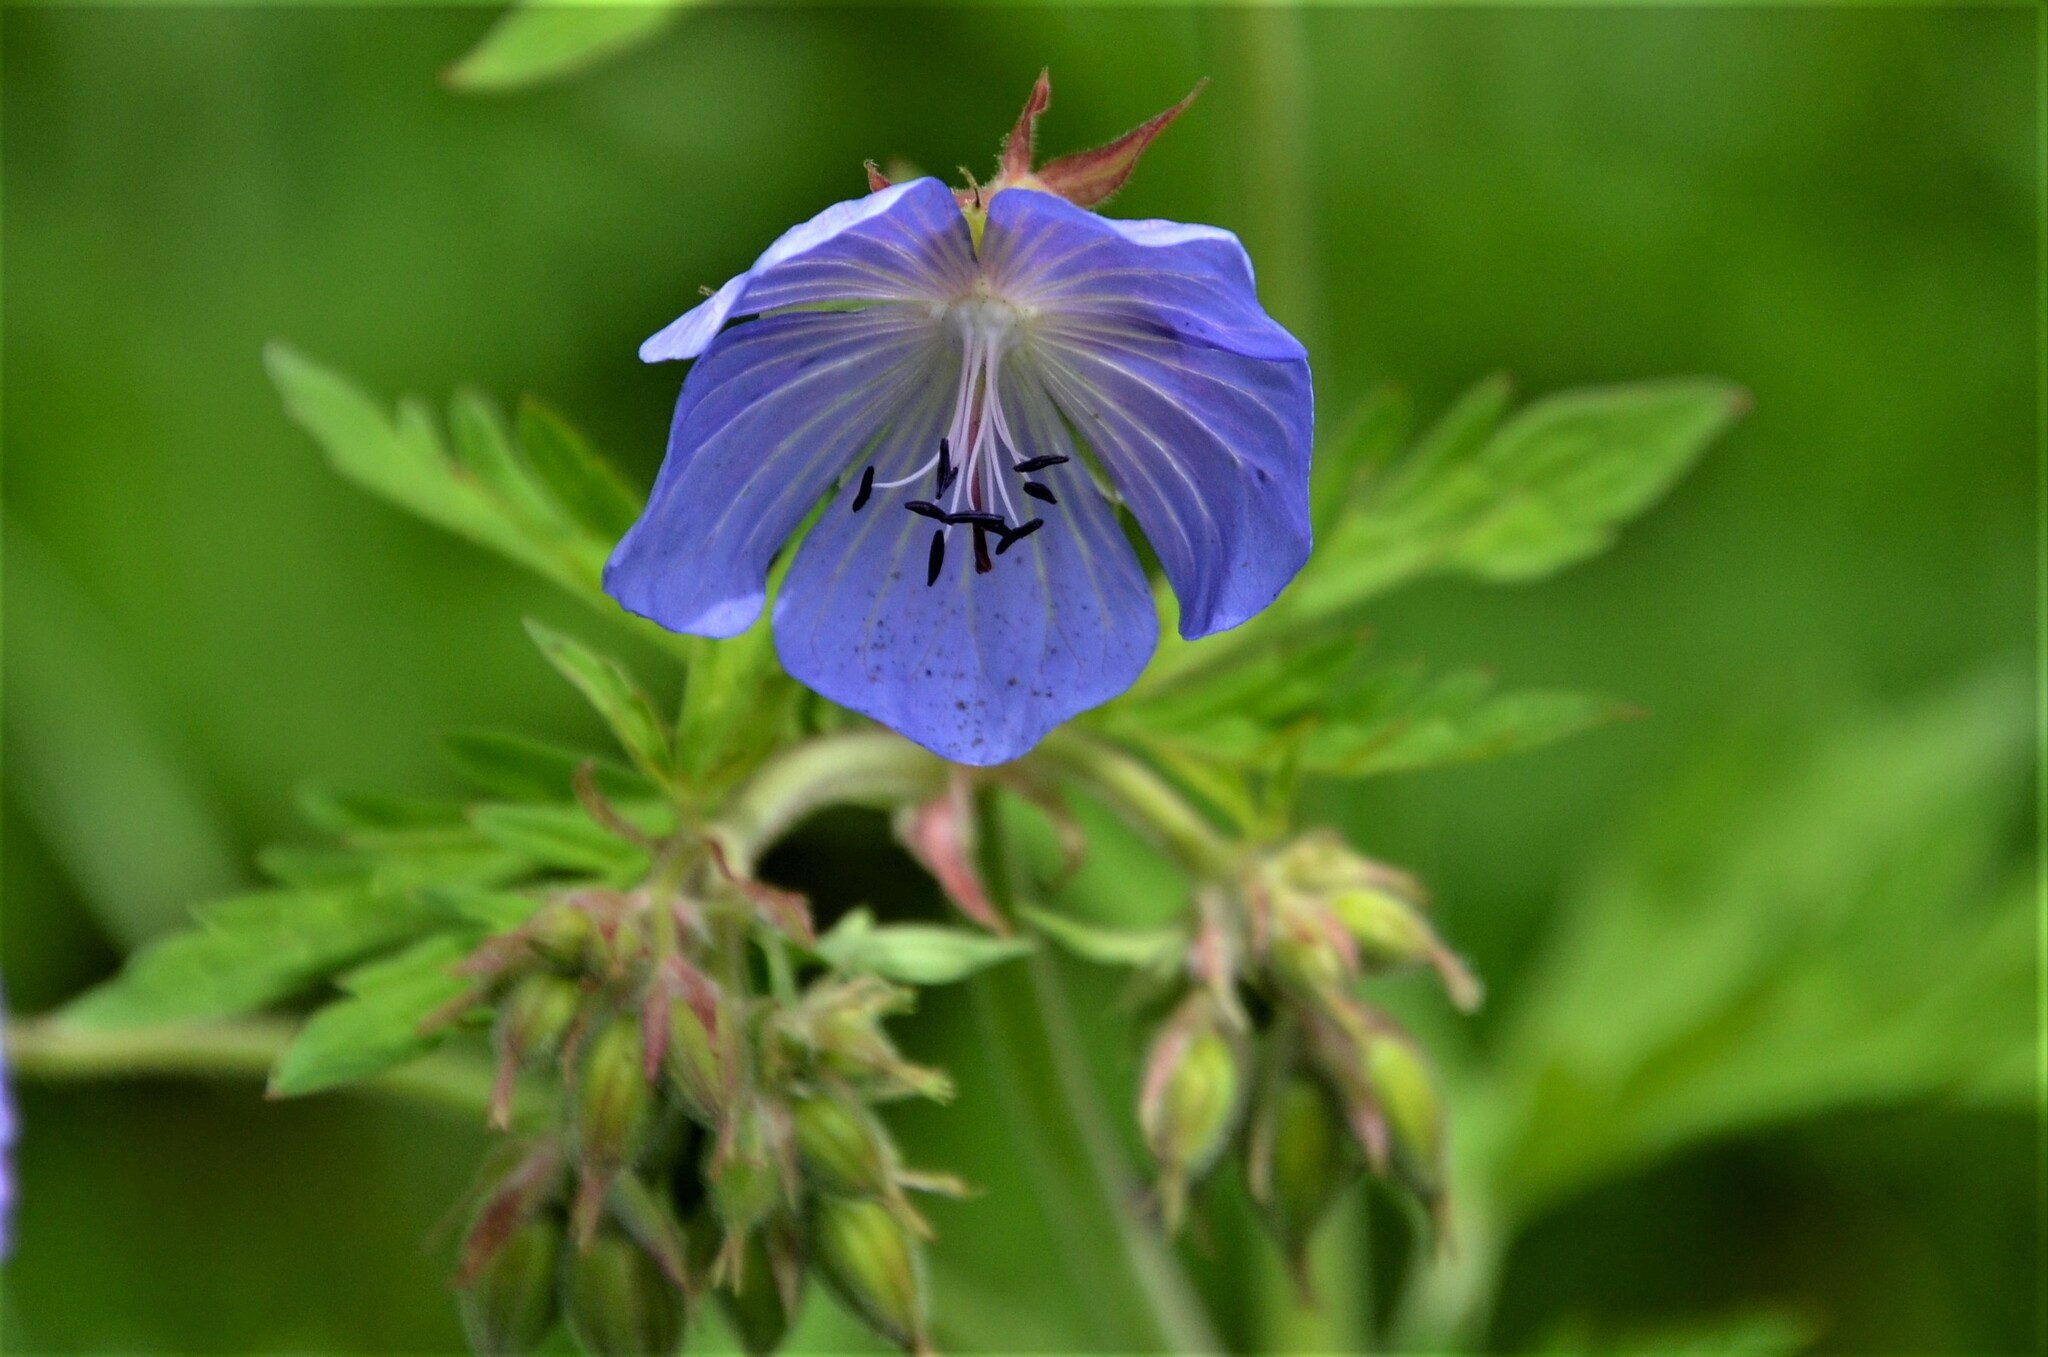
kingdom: Plantae
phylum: Tracheophyta
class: Magnoliopsida
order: Geraniales
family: Geraniaceae
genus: Geranium
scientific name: Geranium pratense
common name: Meadow crane's-bill
